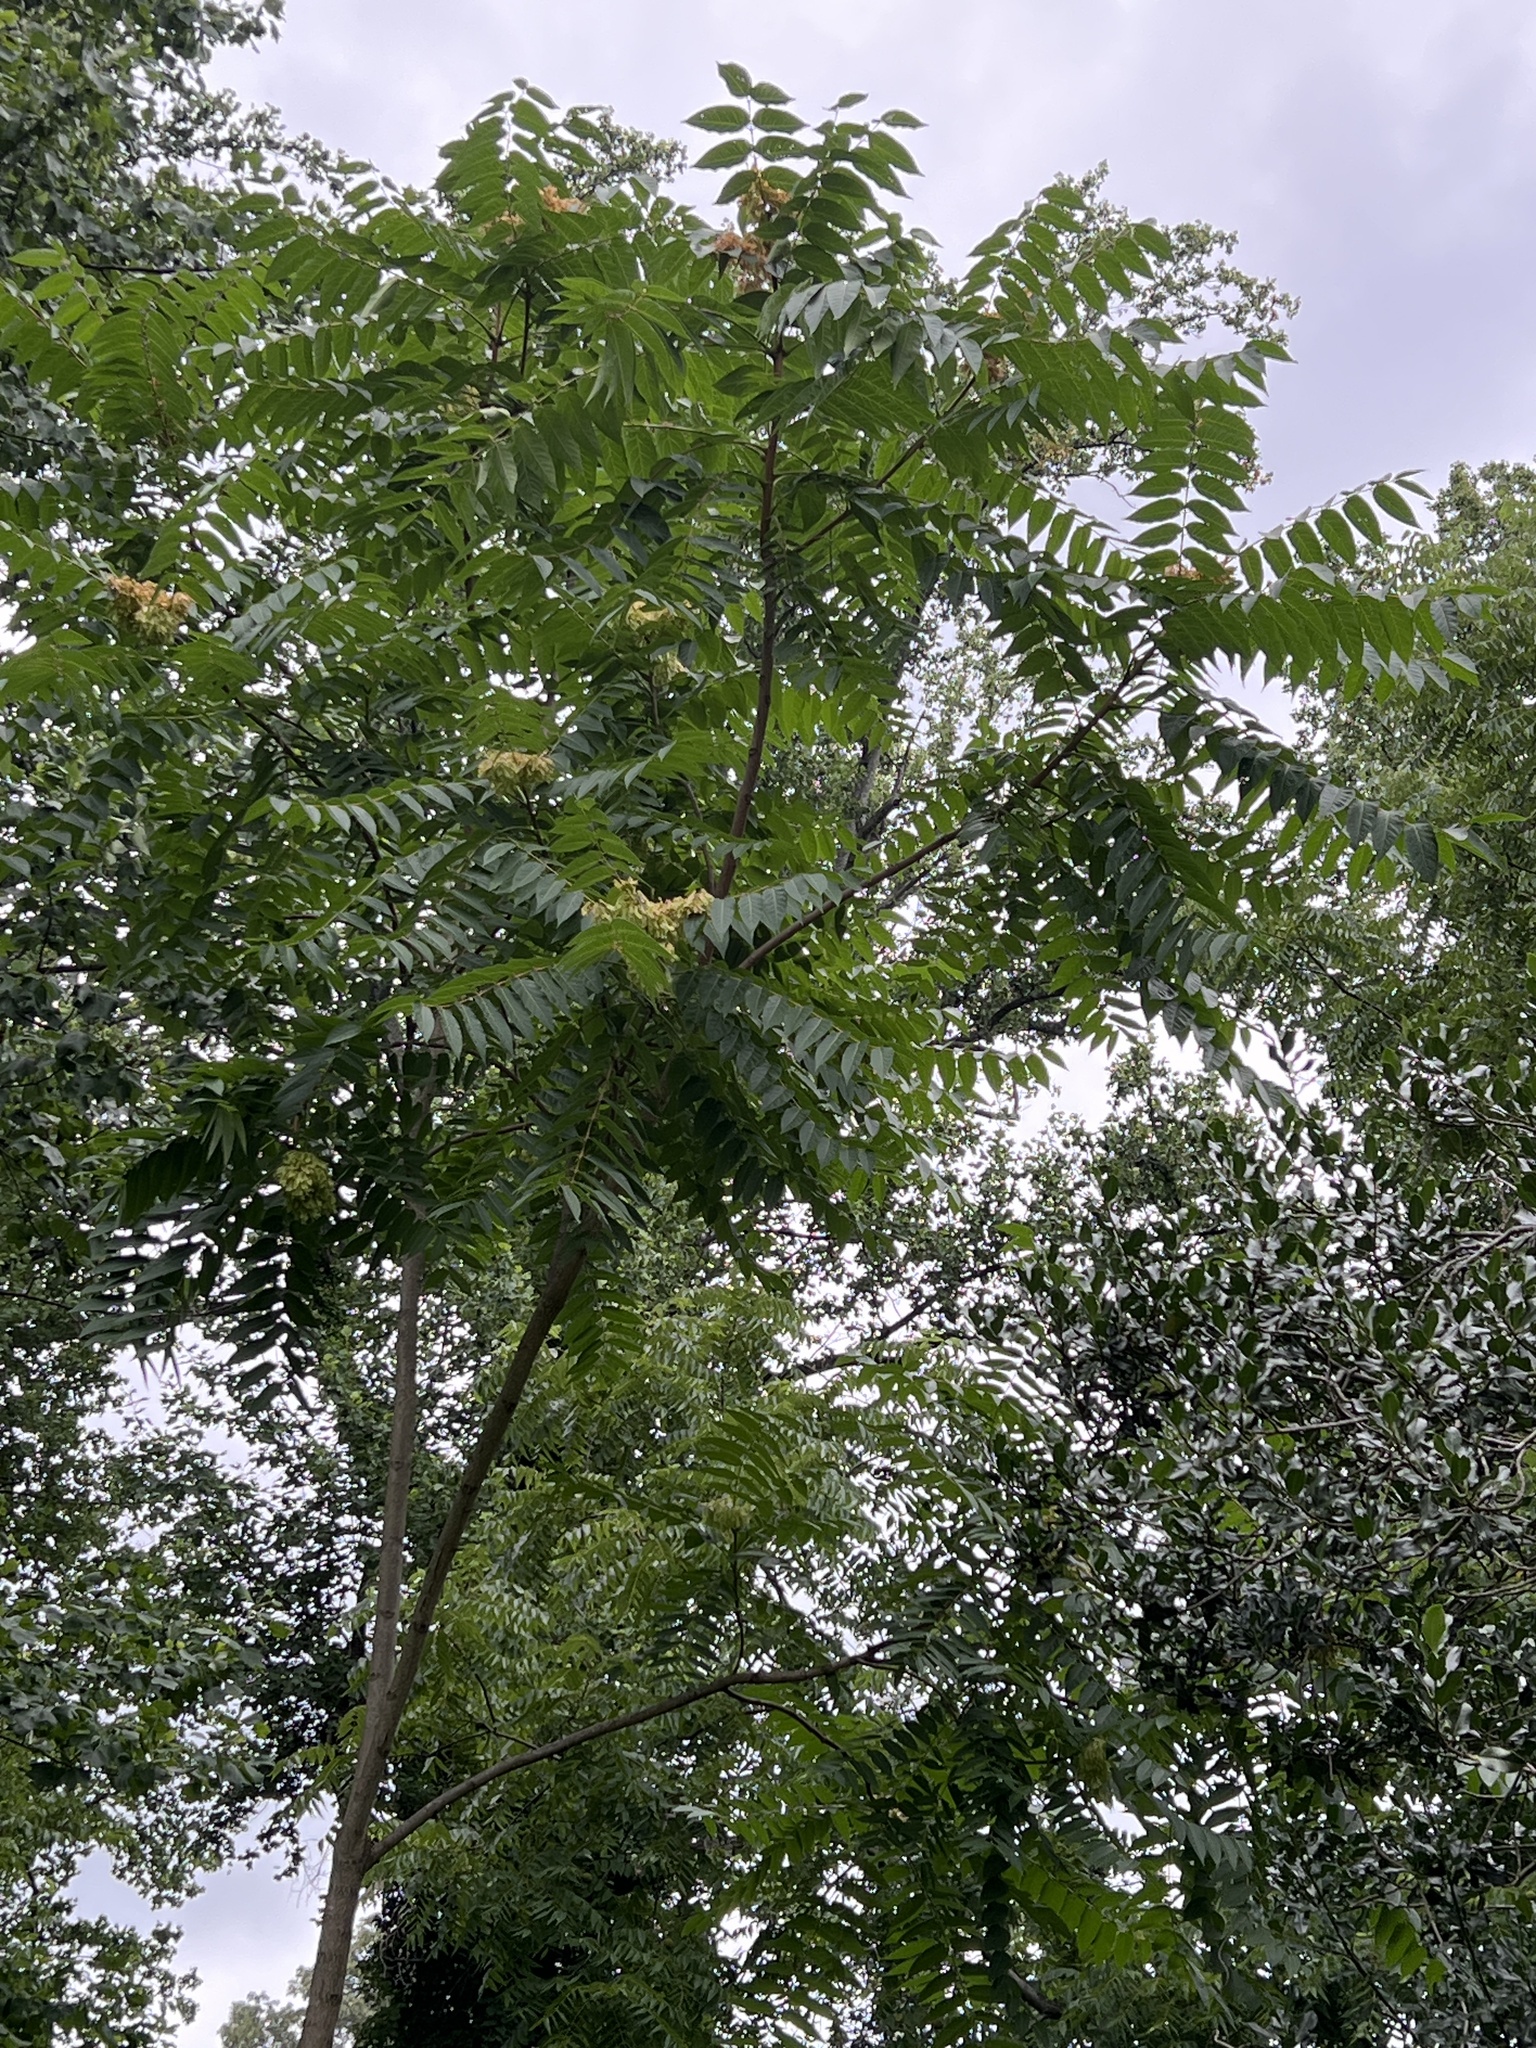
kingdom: Plantae
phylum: Tracheophyta
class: Magnoliopsida
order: Sapindales
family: Simaroubaceae
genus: Ailanthus
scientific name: Ailanthus altissima
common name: Tree-of-heaven
